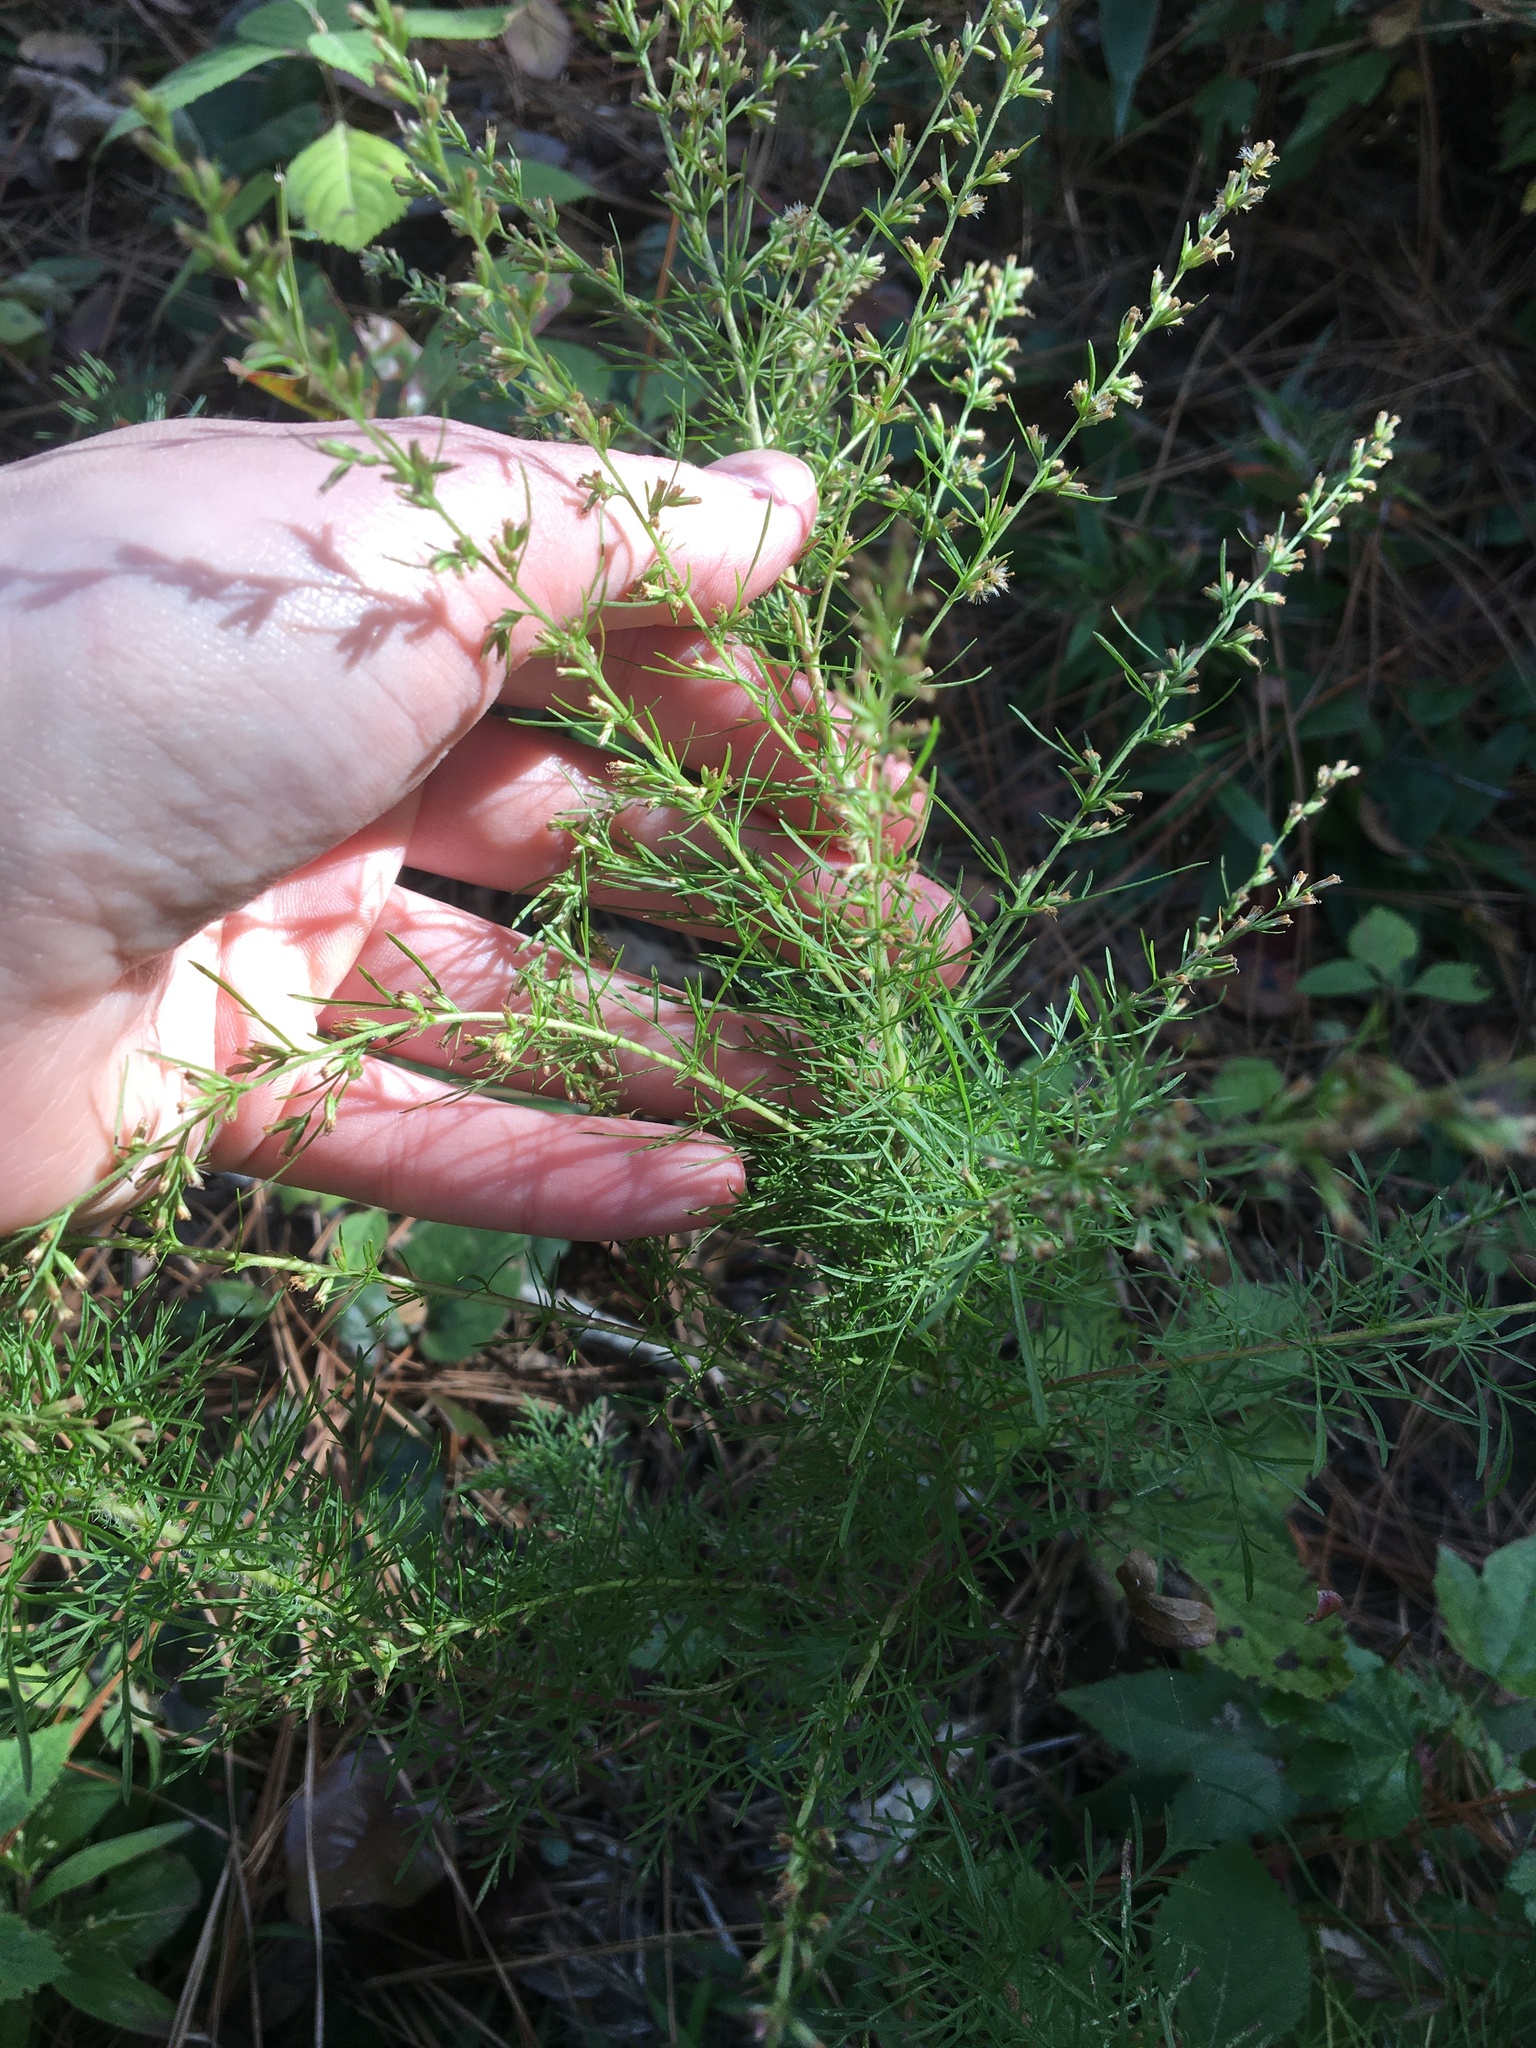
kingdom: Plantae
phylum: Tracheophyta
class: Magnoliopsida
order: Asterales
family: Asteraceae
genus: Eupatorium
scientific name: Eupatorium compositifolium
